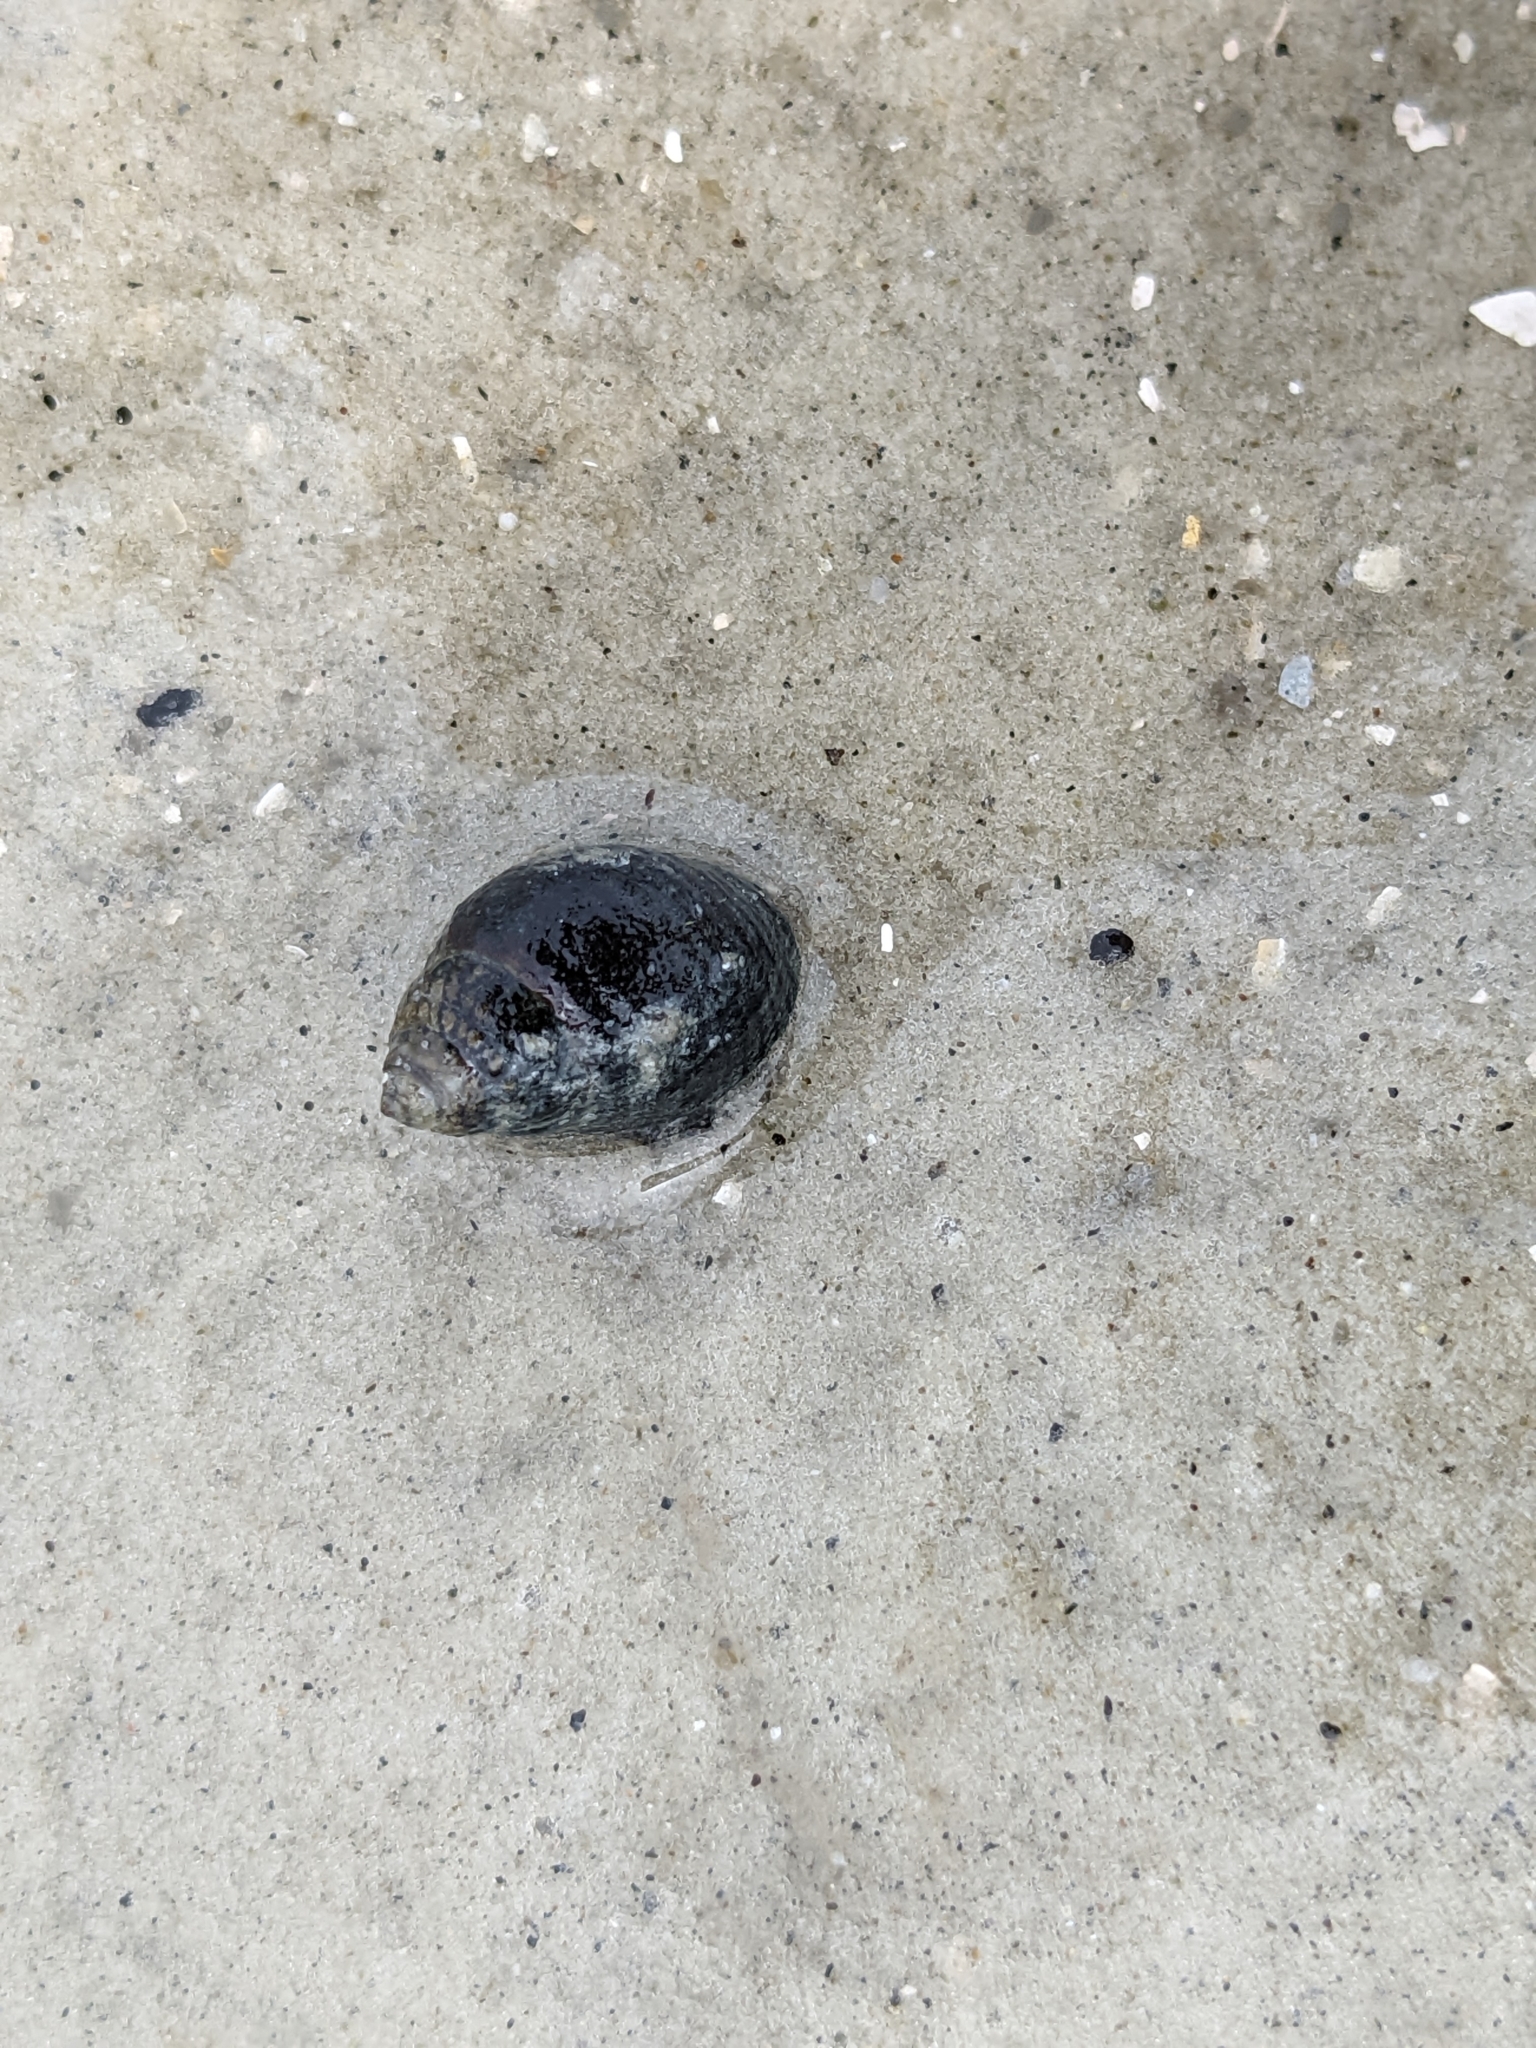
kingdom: Animalia
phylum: Mollusca
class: Gastropoda
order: Neogastropoda
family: Nassariidae
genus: Ilyanassa
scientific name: Ilyanassa obsoleta
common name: Eastern mudsnail
